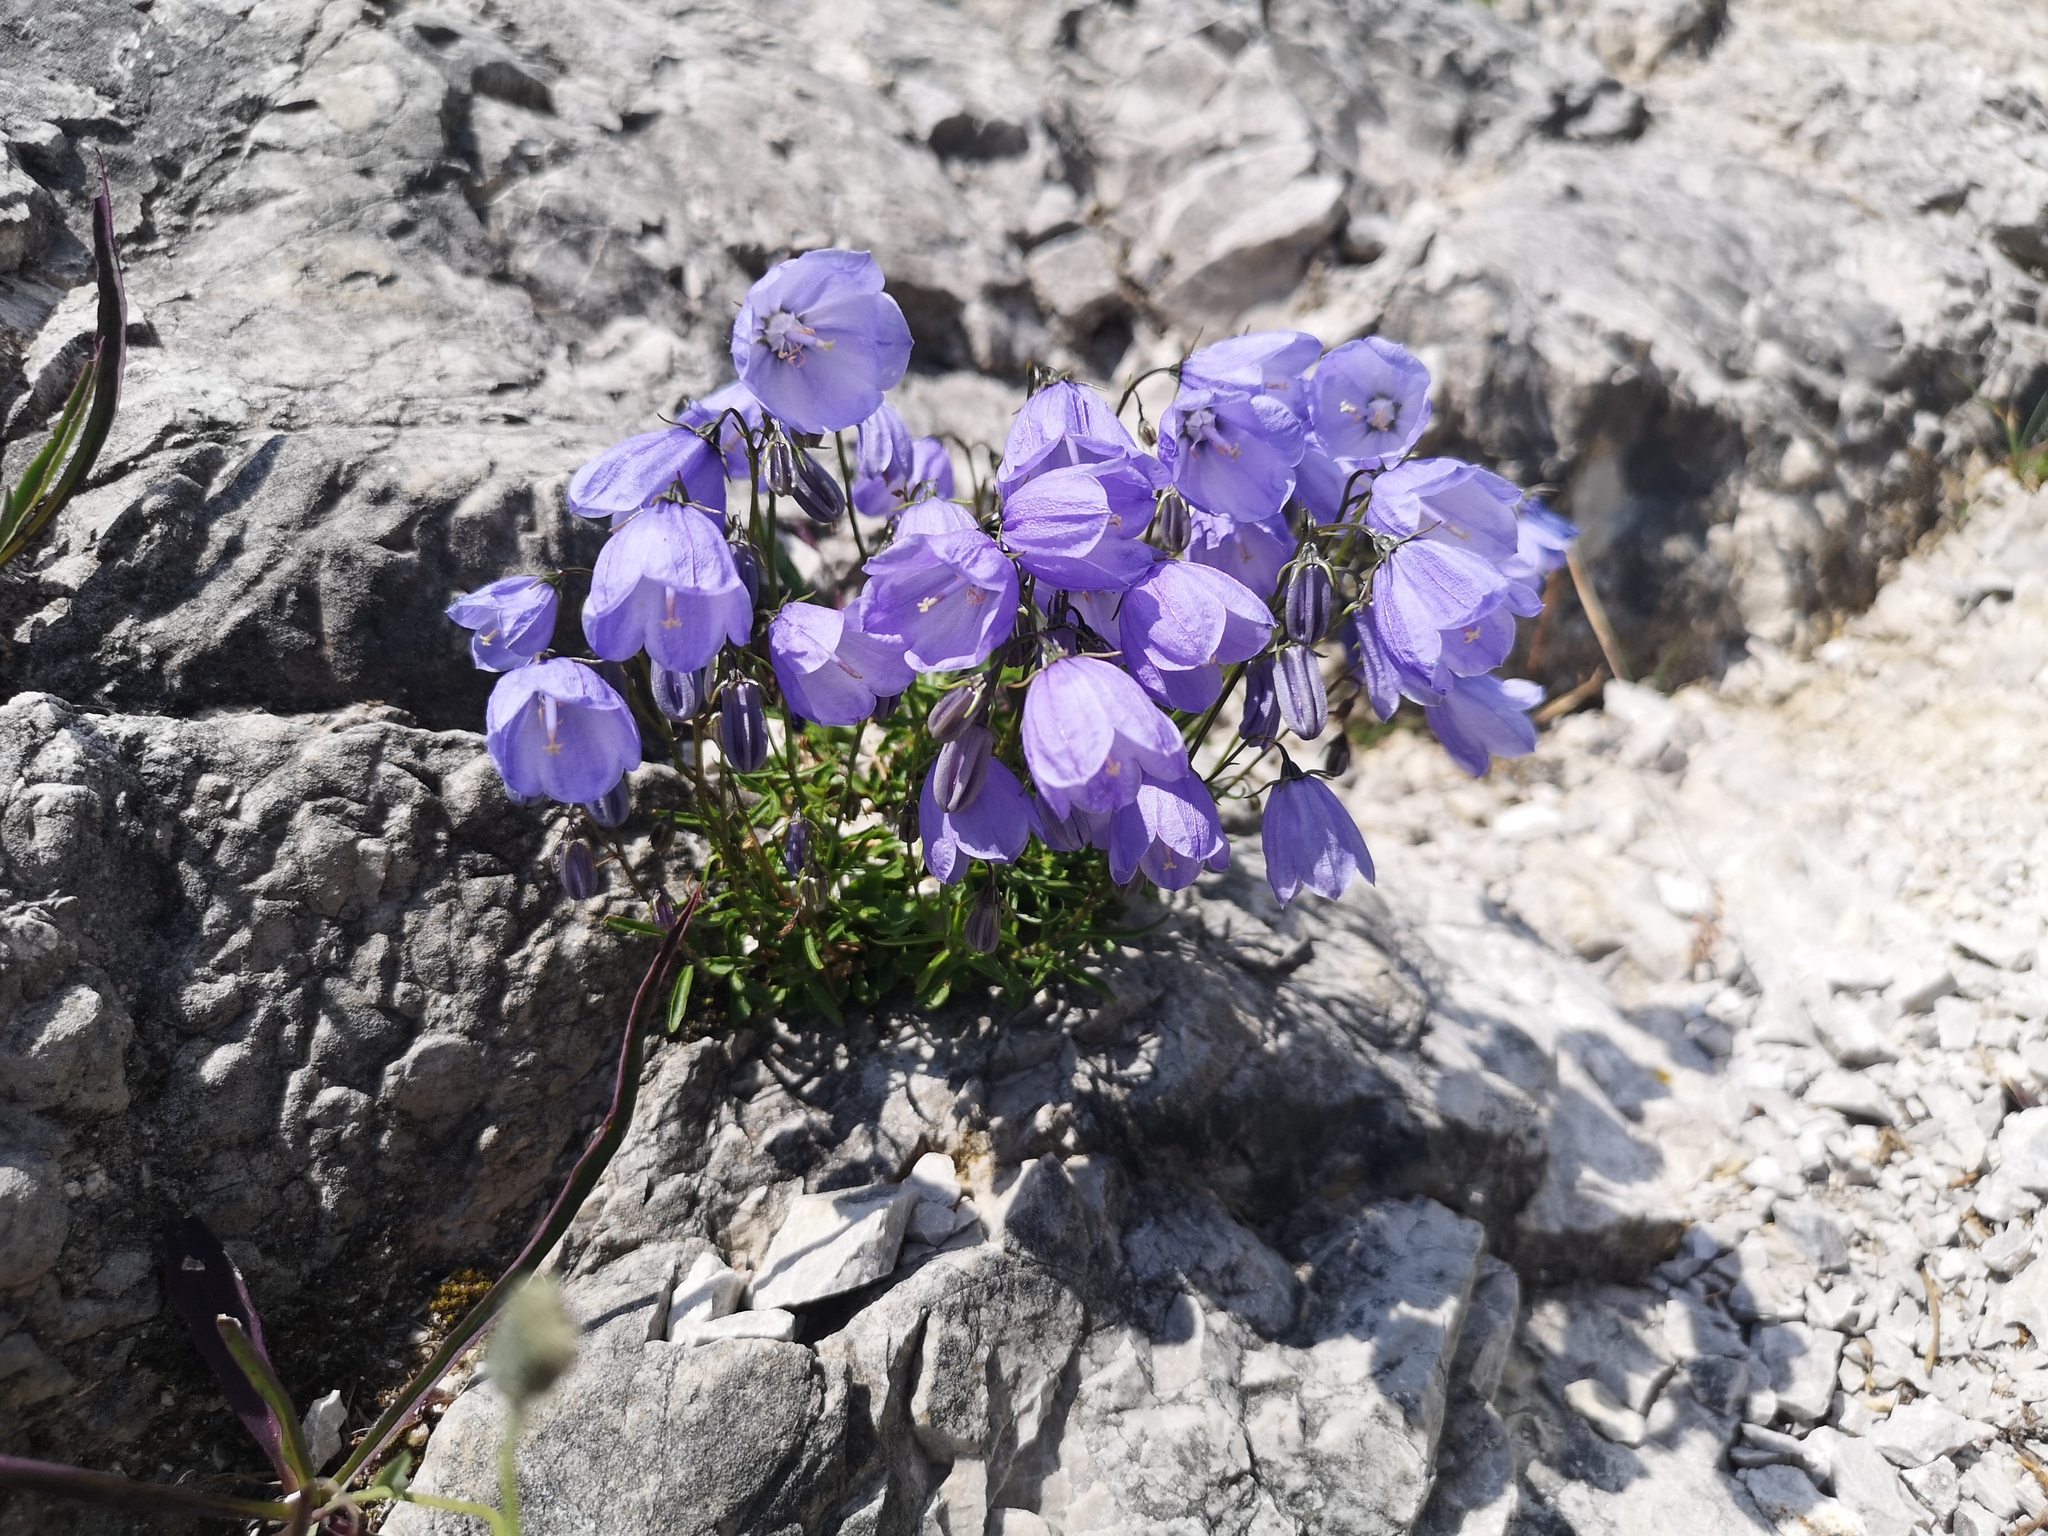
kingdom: Plantae
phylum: Tracheophyta
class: Magnoliopsida
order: Asterales
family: Campanulaceae
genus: Campanula
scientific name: Campanula cochleariifolia
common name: Fairies'-thimbles
